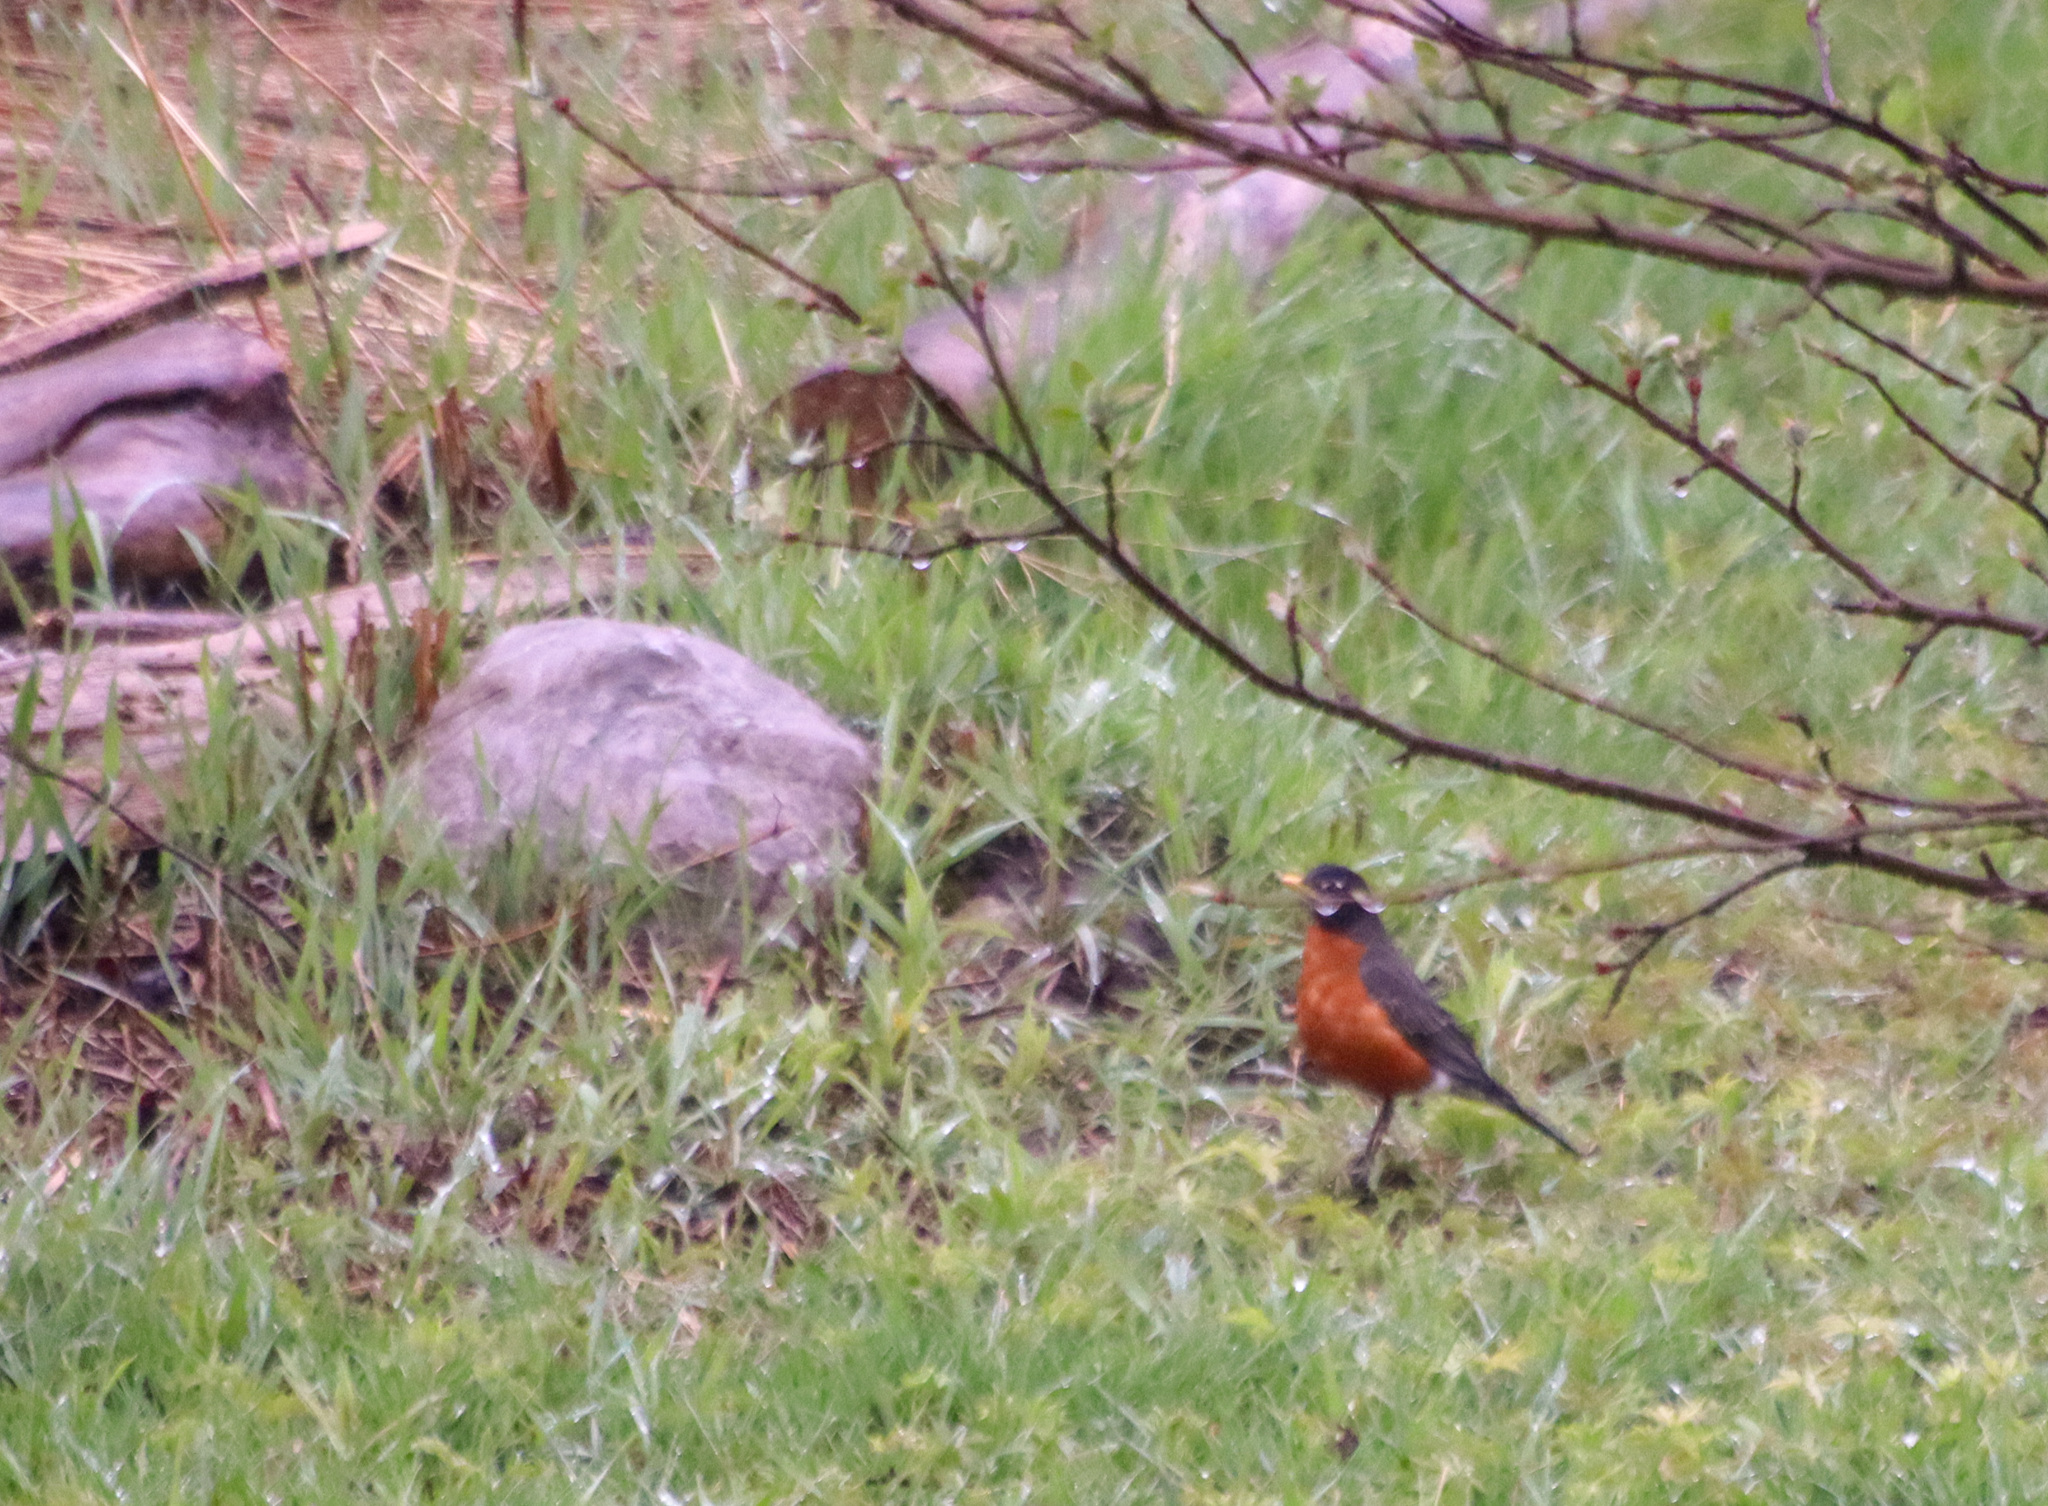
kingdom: Animalia
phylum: Chordata
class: Aves
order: Passeriformes
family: Turdidae
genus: Turdus
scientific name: Turdus migratorius
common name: American robin
